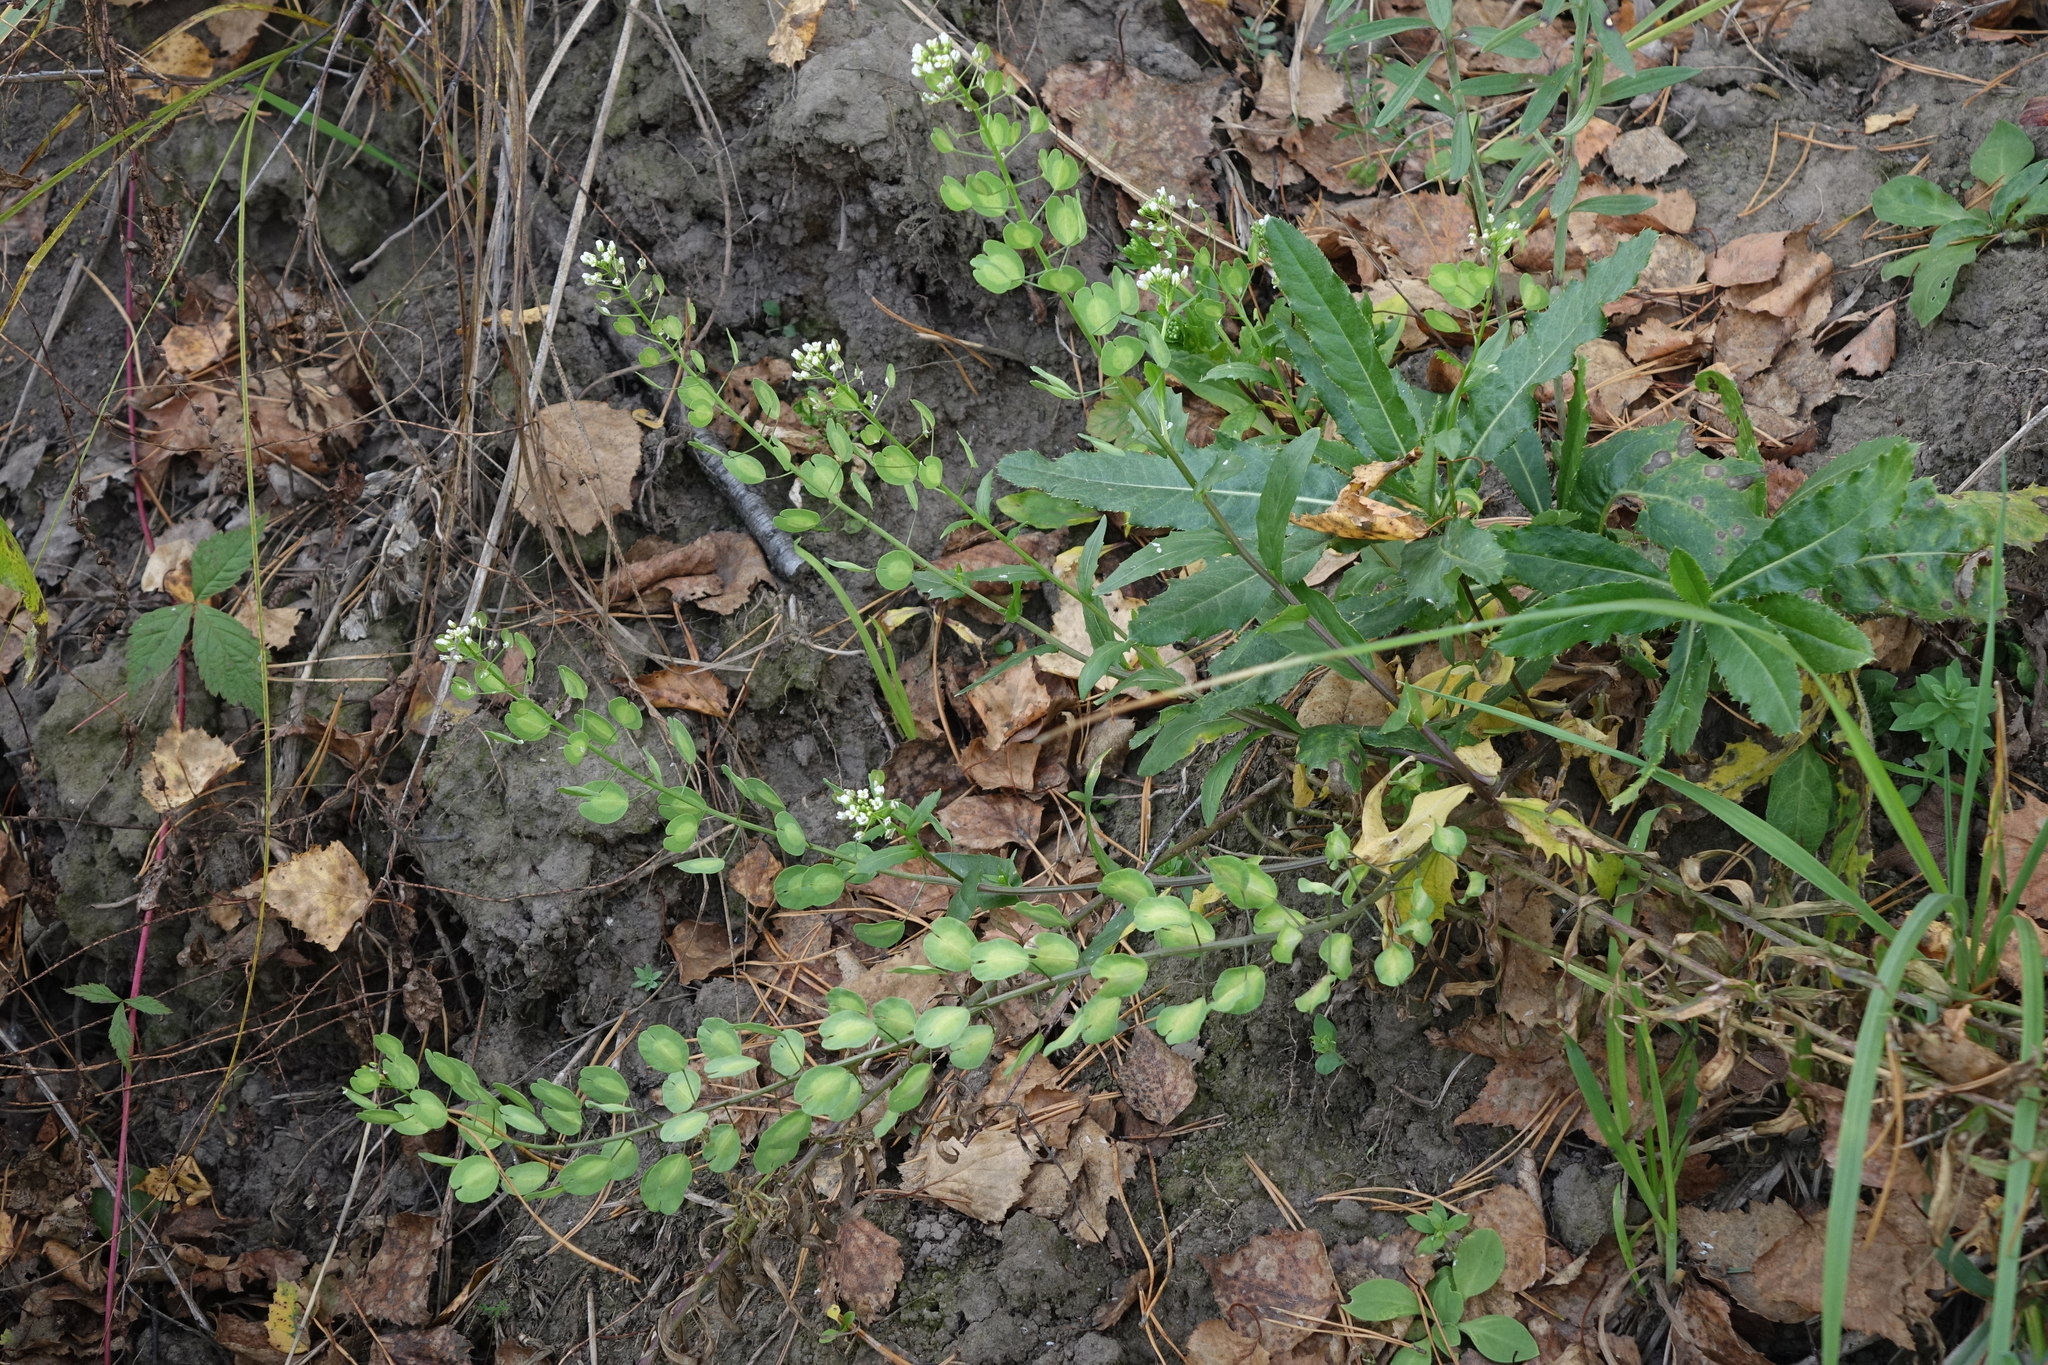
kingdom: Plantae
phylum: Tracheophyta
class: Magnoliopsida
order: Brassicales
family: Brassicaceae
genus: Thlaspi
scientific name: Thlaspi arvense
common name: Field pennycress
